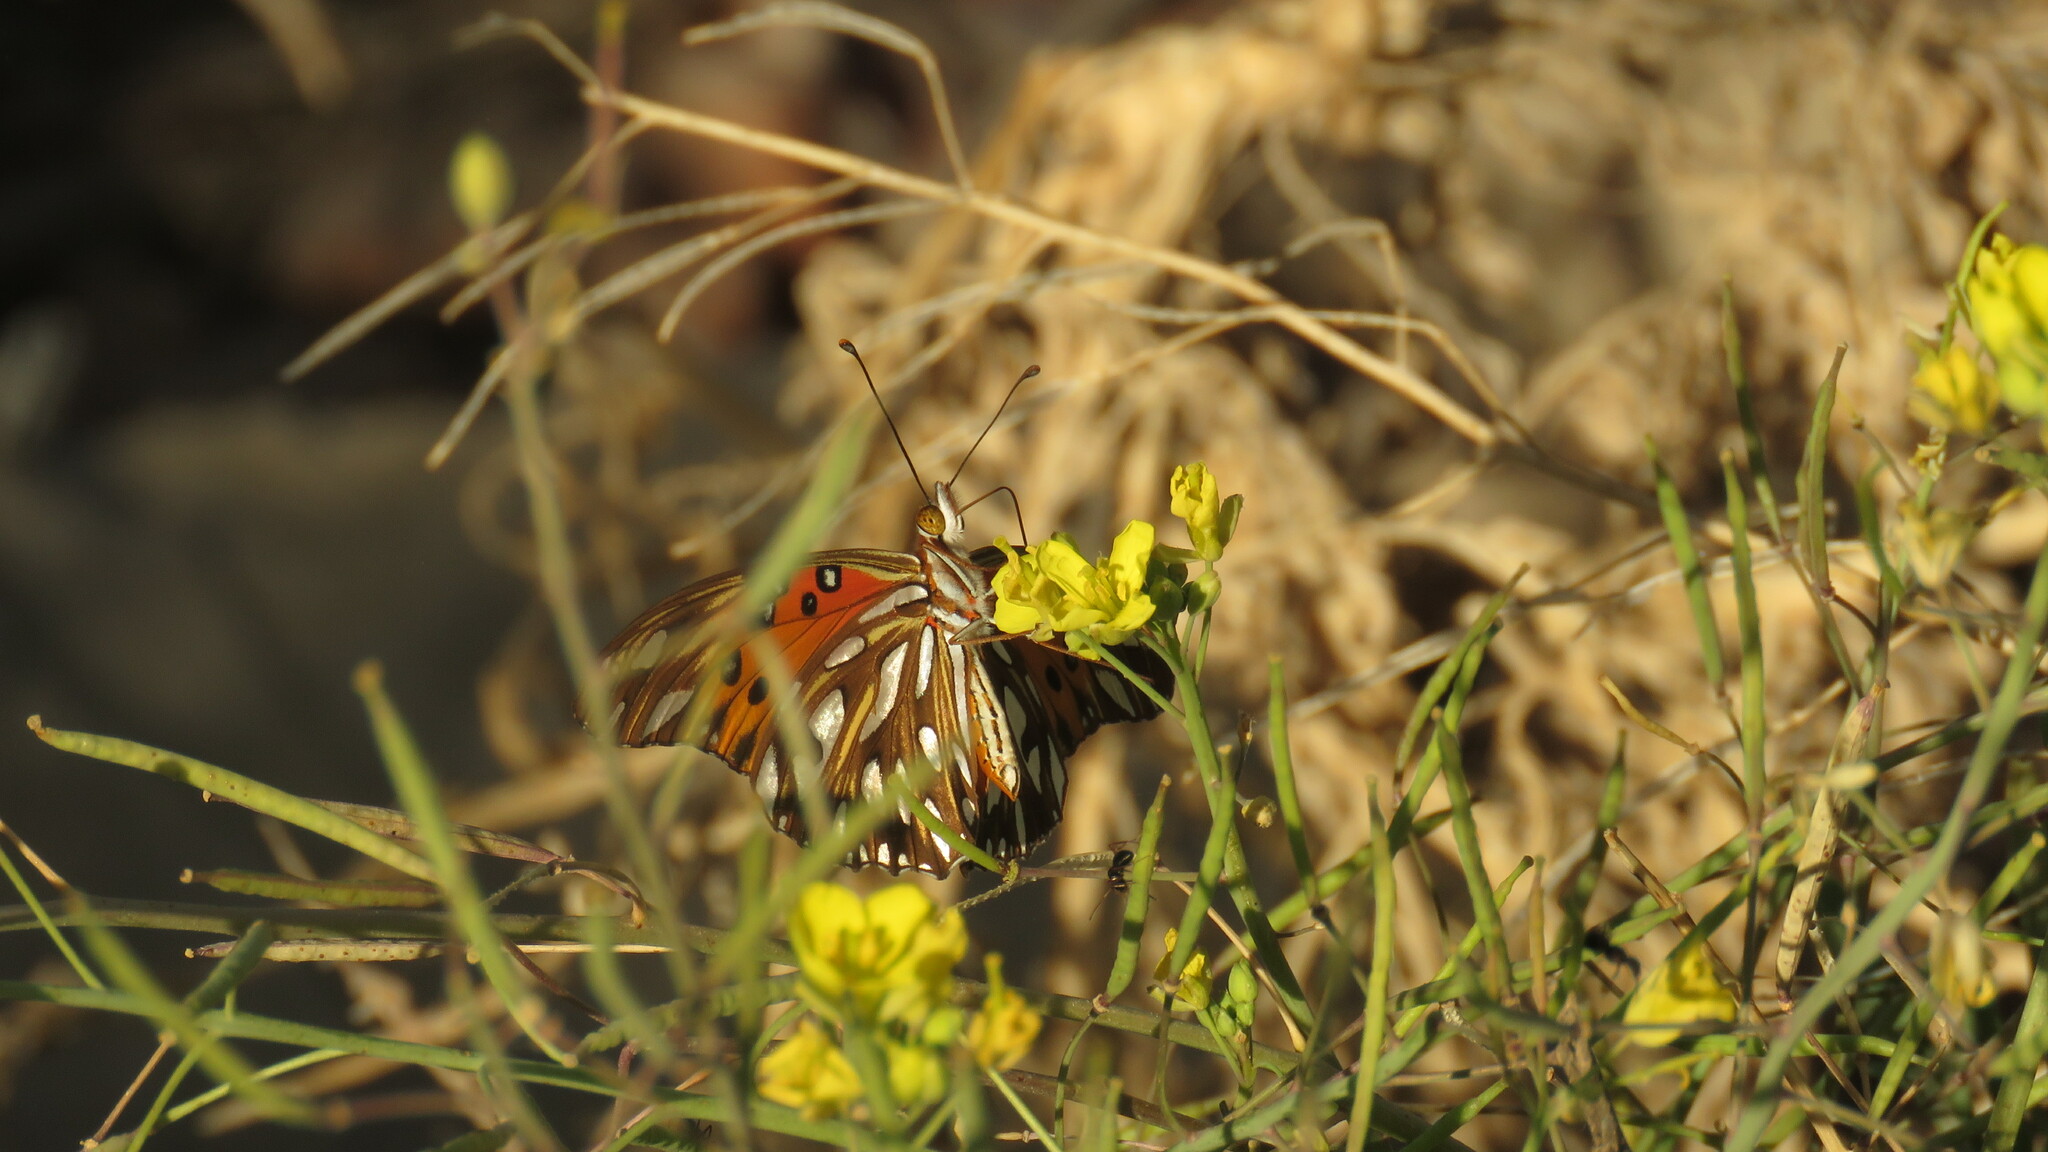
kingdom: Animalia
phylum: Arthropoda
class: Insecta
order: Lepidoptera
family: Nymphalidae
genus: Dione
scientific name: Dione vanillae
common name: Gulf fritillary
